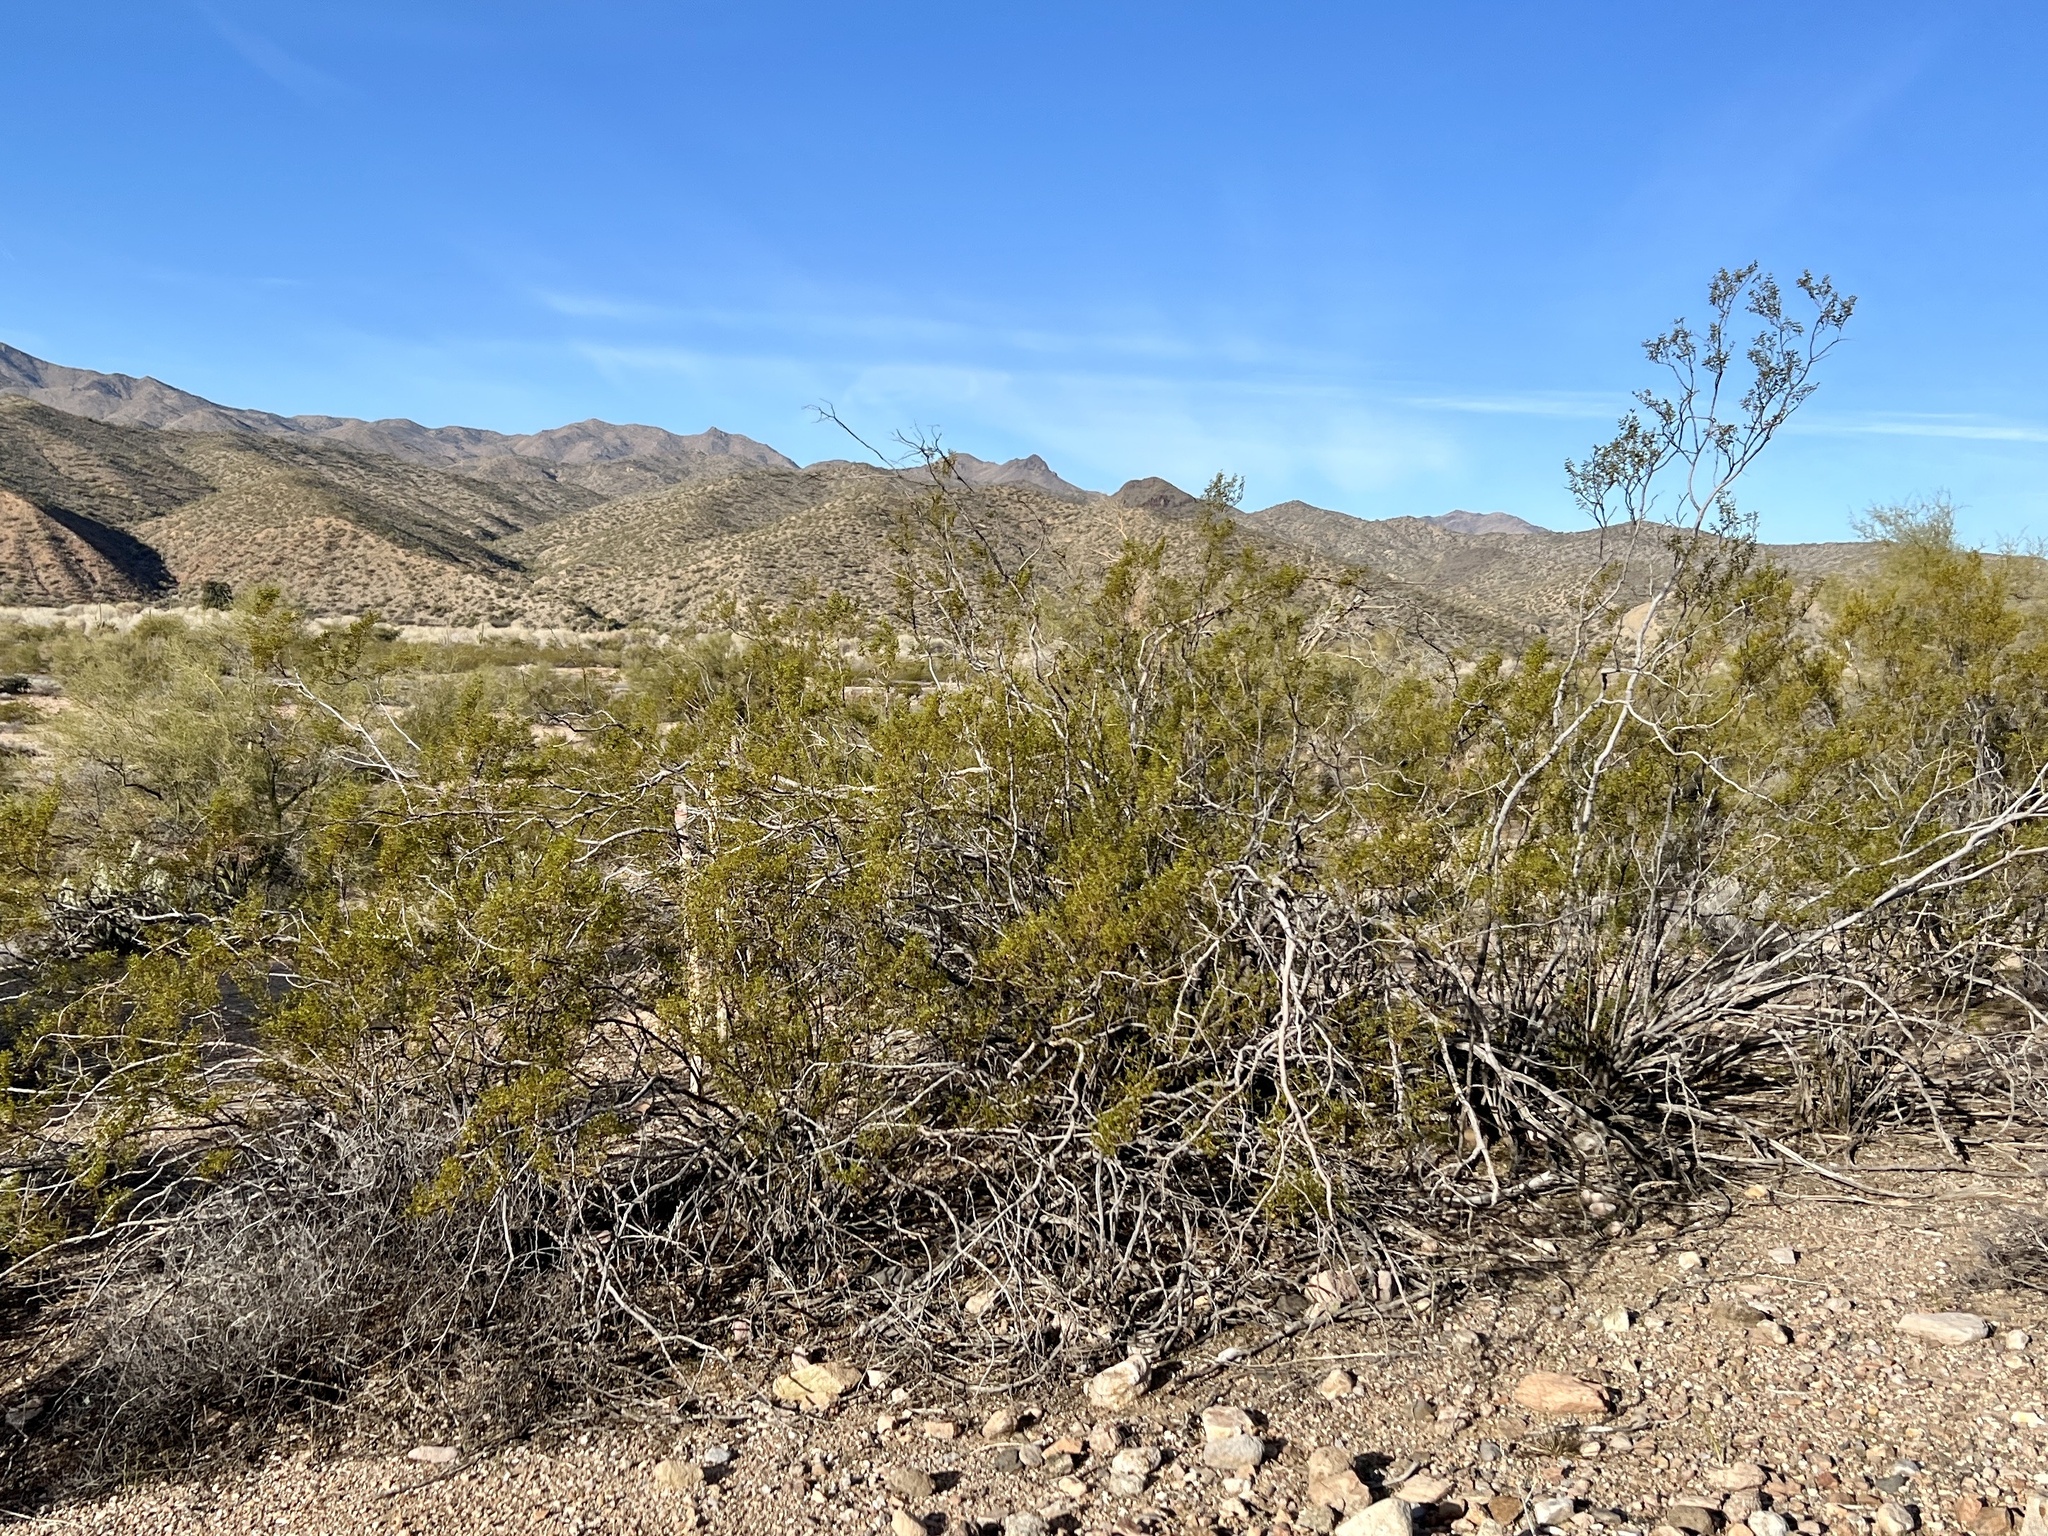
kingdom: Plantae
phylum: Tracheophyta
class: Magnoliopsida
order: Zygophyllales
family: Zygophyllaceae
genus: Larrea
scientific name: Larrea tridentata
